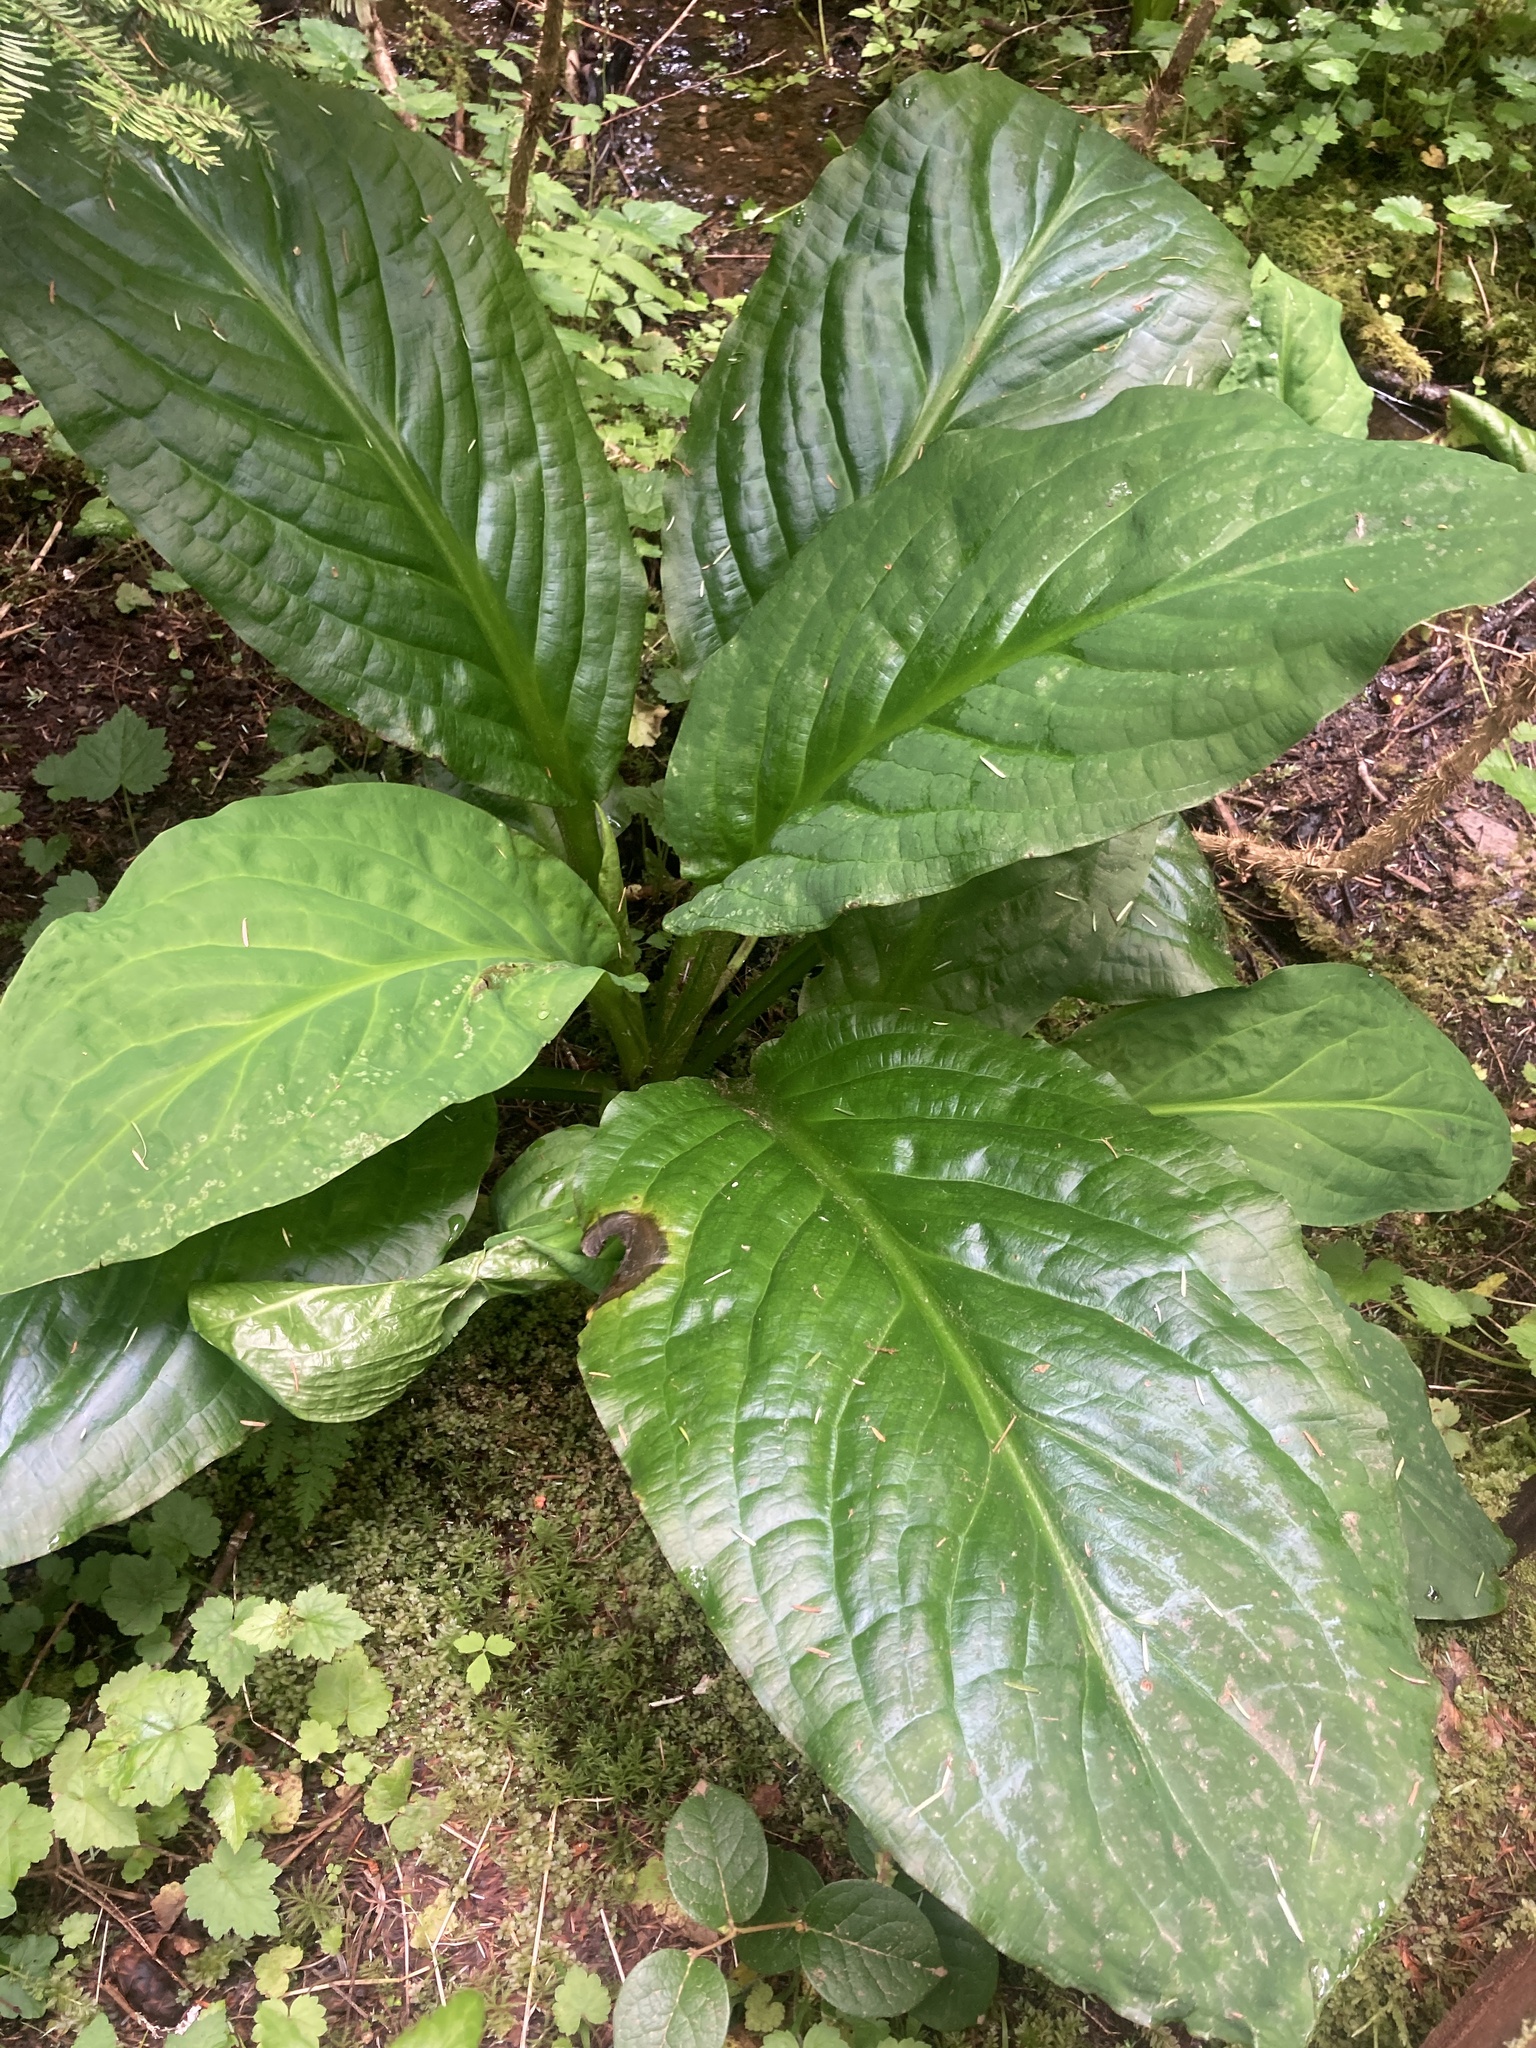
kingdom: Plantae
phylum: Tracheophyta
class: Liliopsida
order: Alismatales
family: Araceae
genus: Lysichiton
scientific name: Lysichiton americanus
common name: American skunk cabbage
